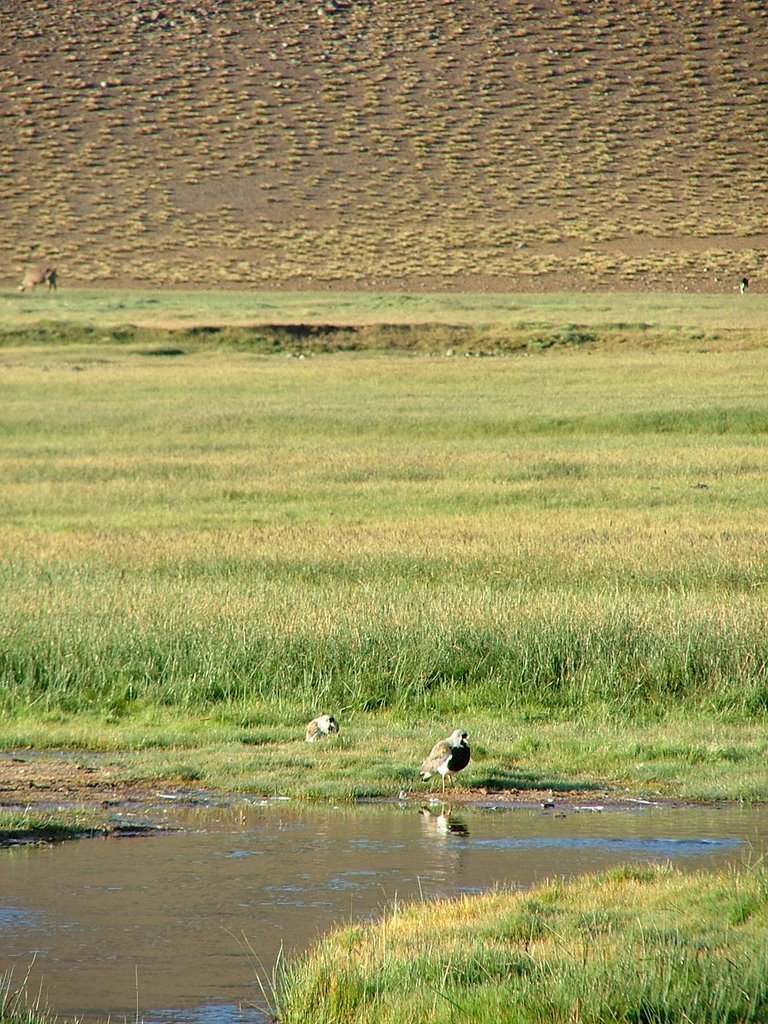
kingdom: Animalia
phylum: Chordata
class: Aves
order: Charadriiformes
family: Charadriidae
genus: Vanellus
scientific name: Vanellus chilensis
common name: Southern lapwing
